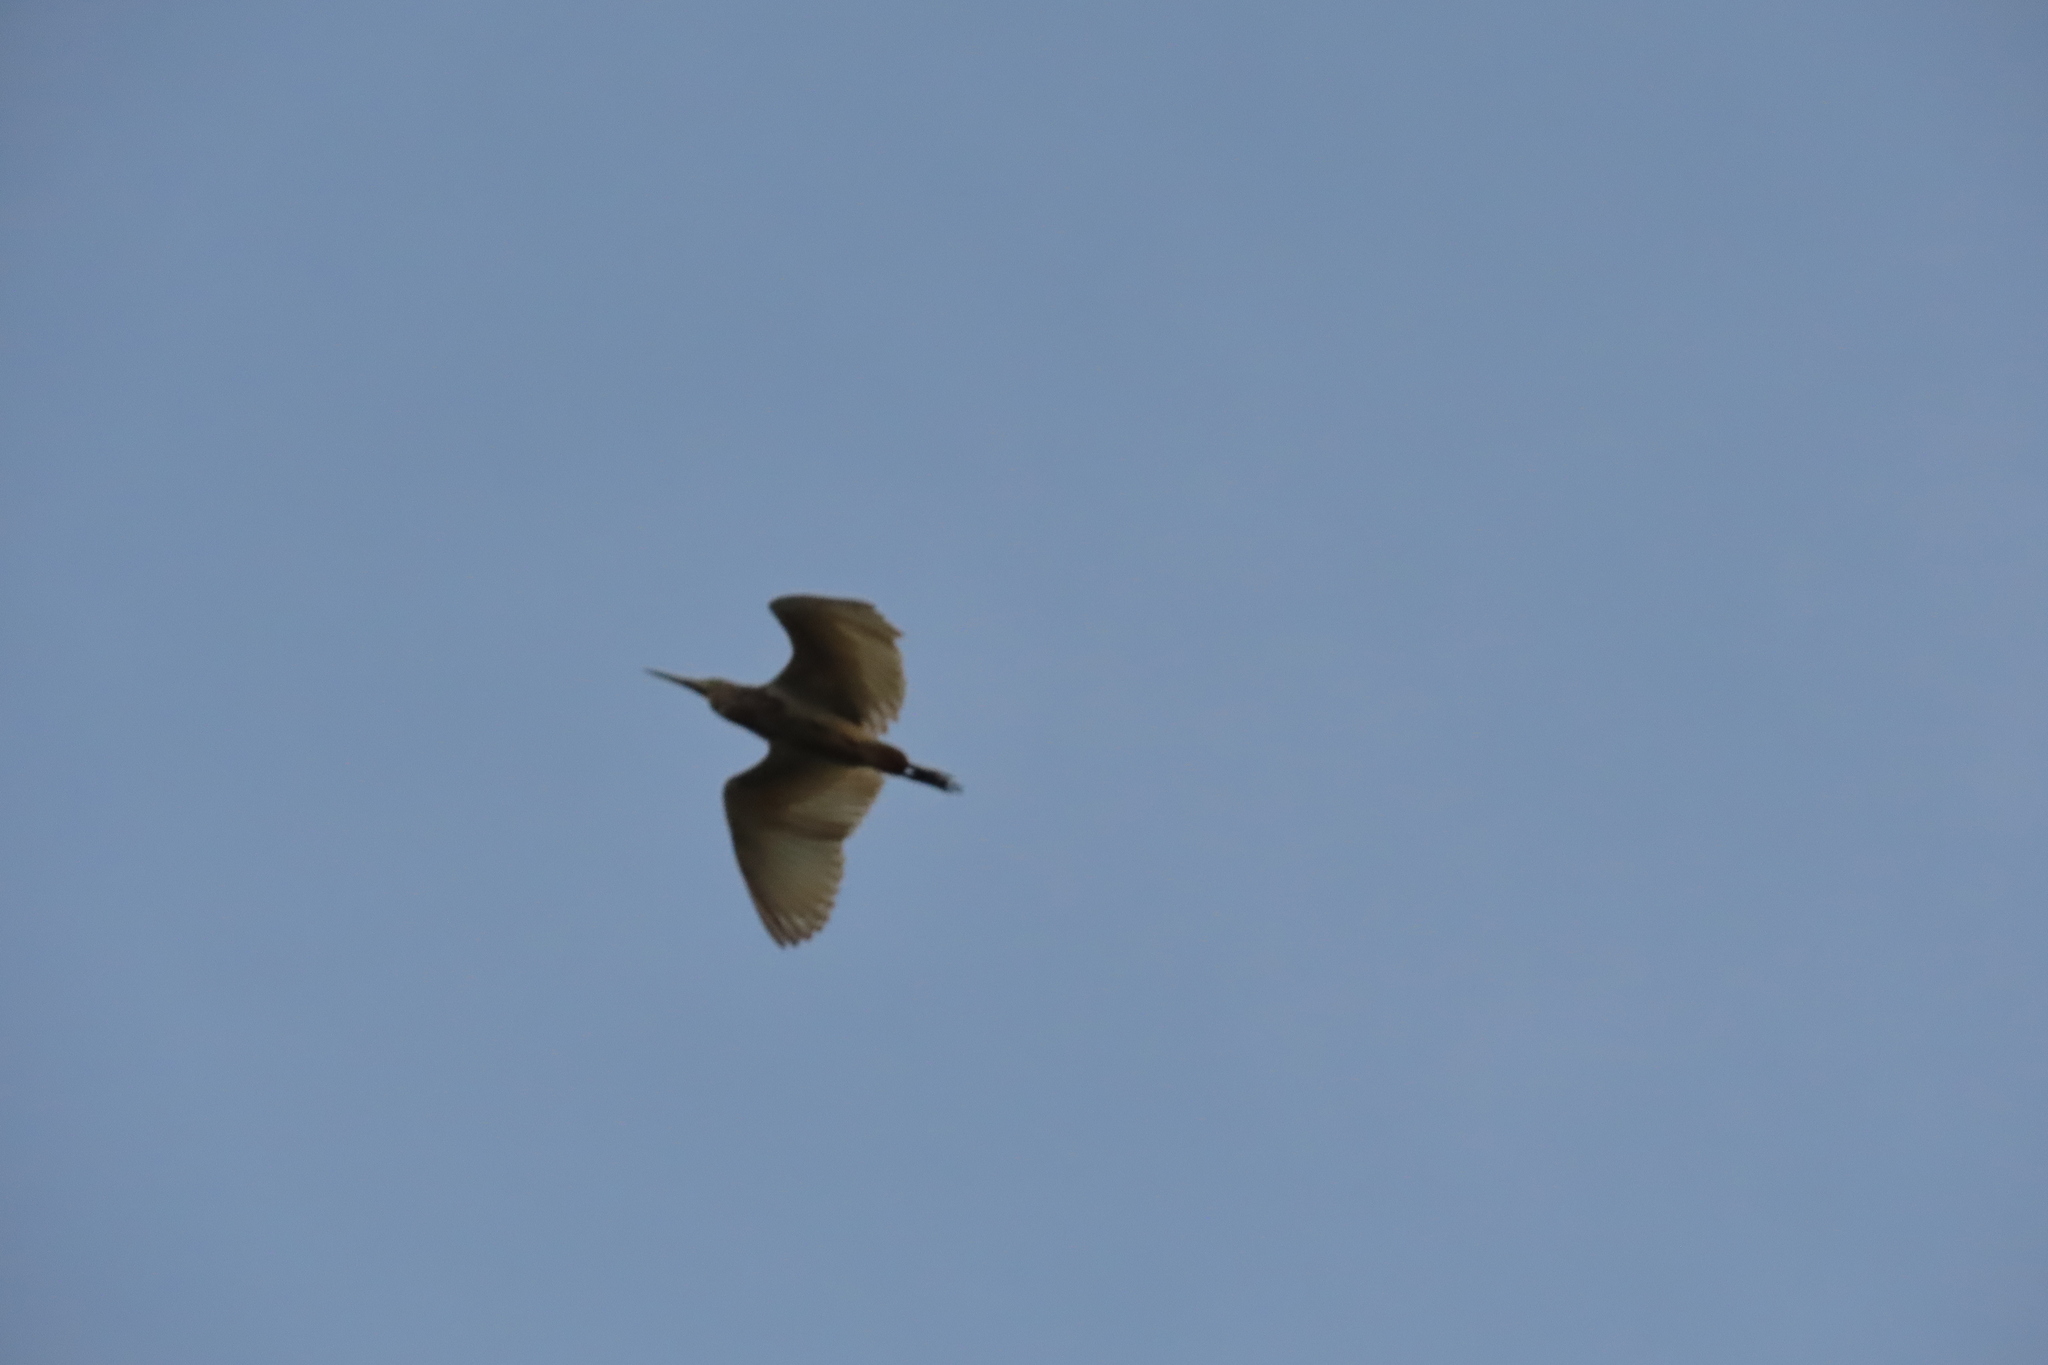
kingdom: Animalia
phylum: Chordata
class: Aves
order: Pelecaniformes
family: Ardeidae
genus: Ardeola
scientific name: Ardeola grayii
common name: Indian pond heron
